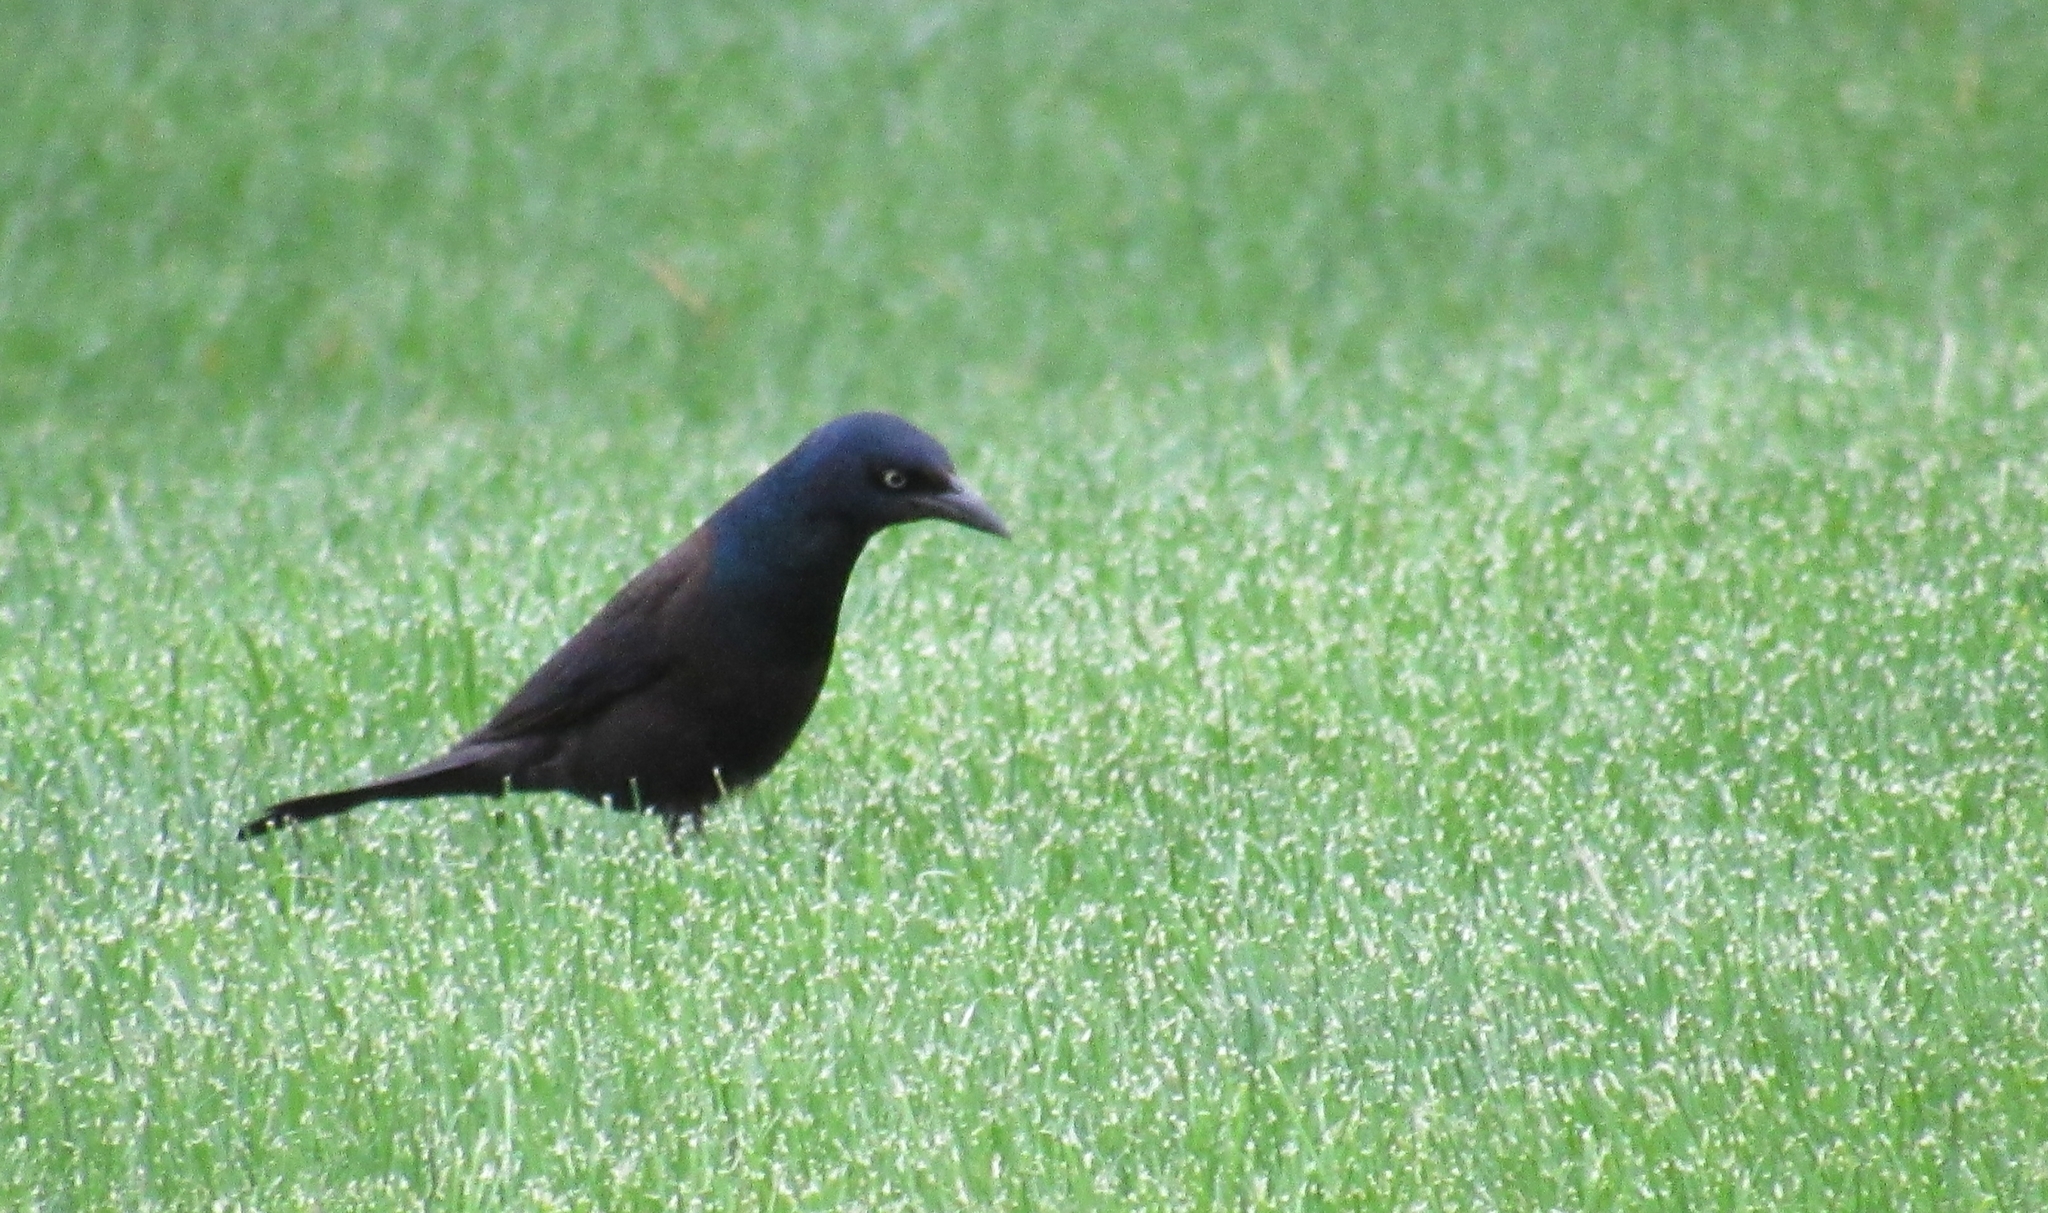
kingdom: Animalia
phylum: Chordata
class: Aves
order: Passeriformes
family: Icteridae
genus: Quiscalus
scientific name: Quiscalus quiscula
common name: Common grackle
